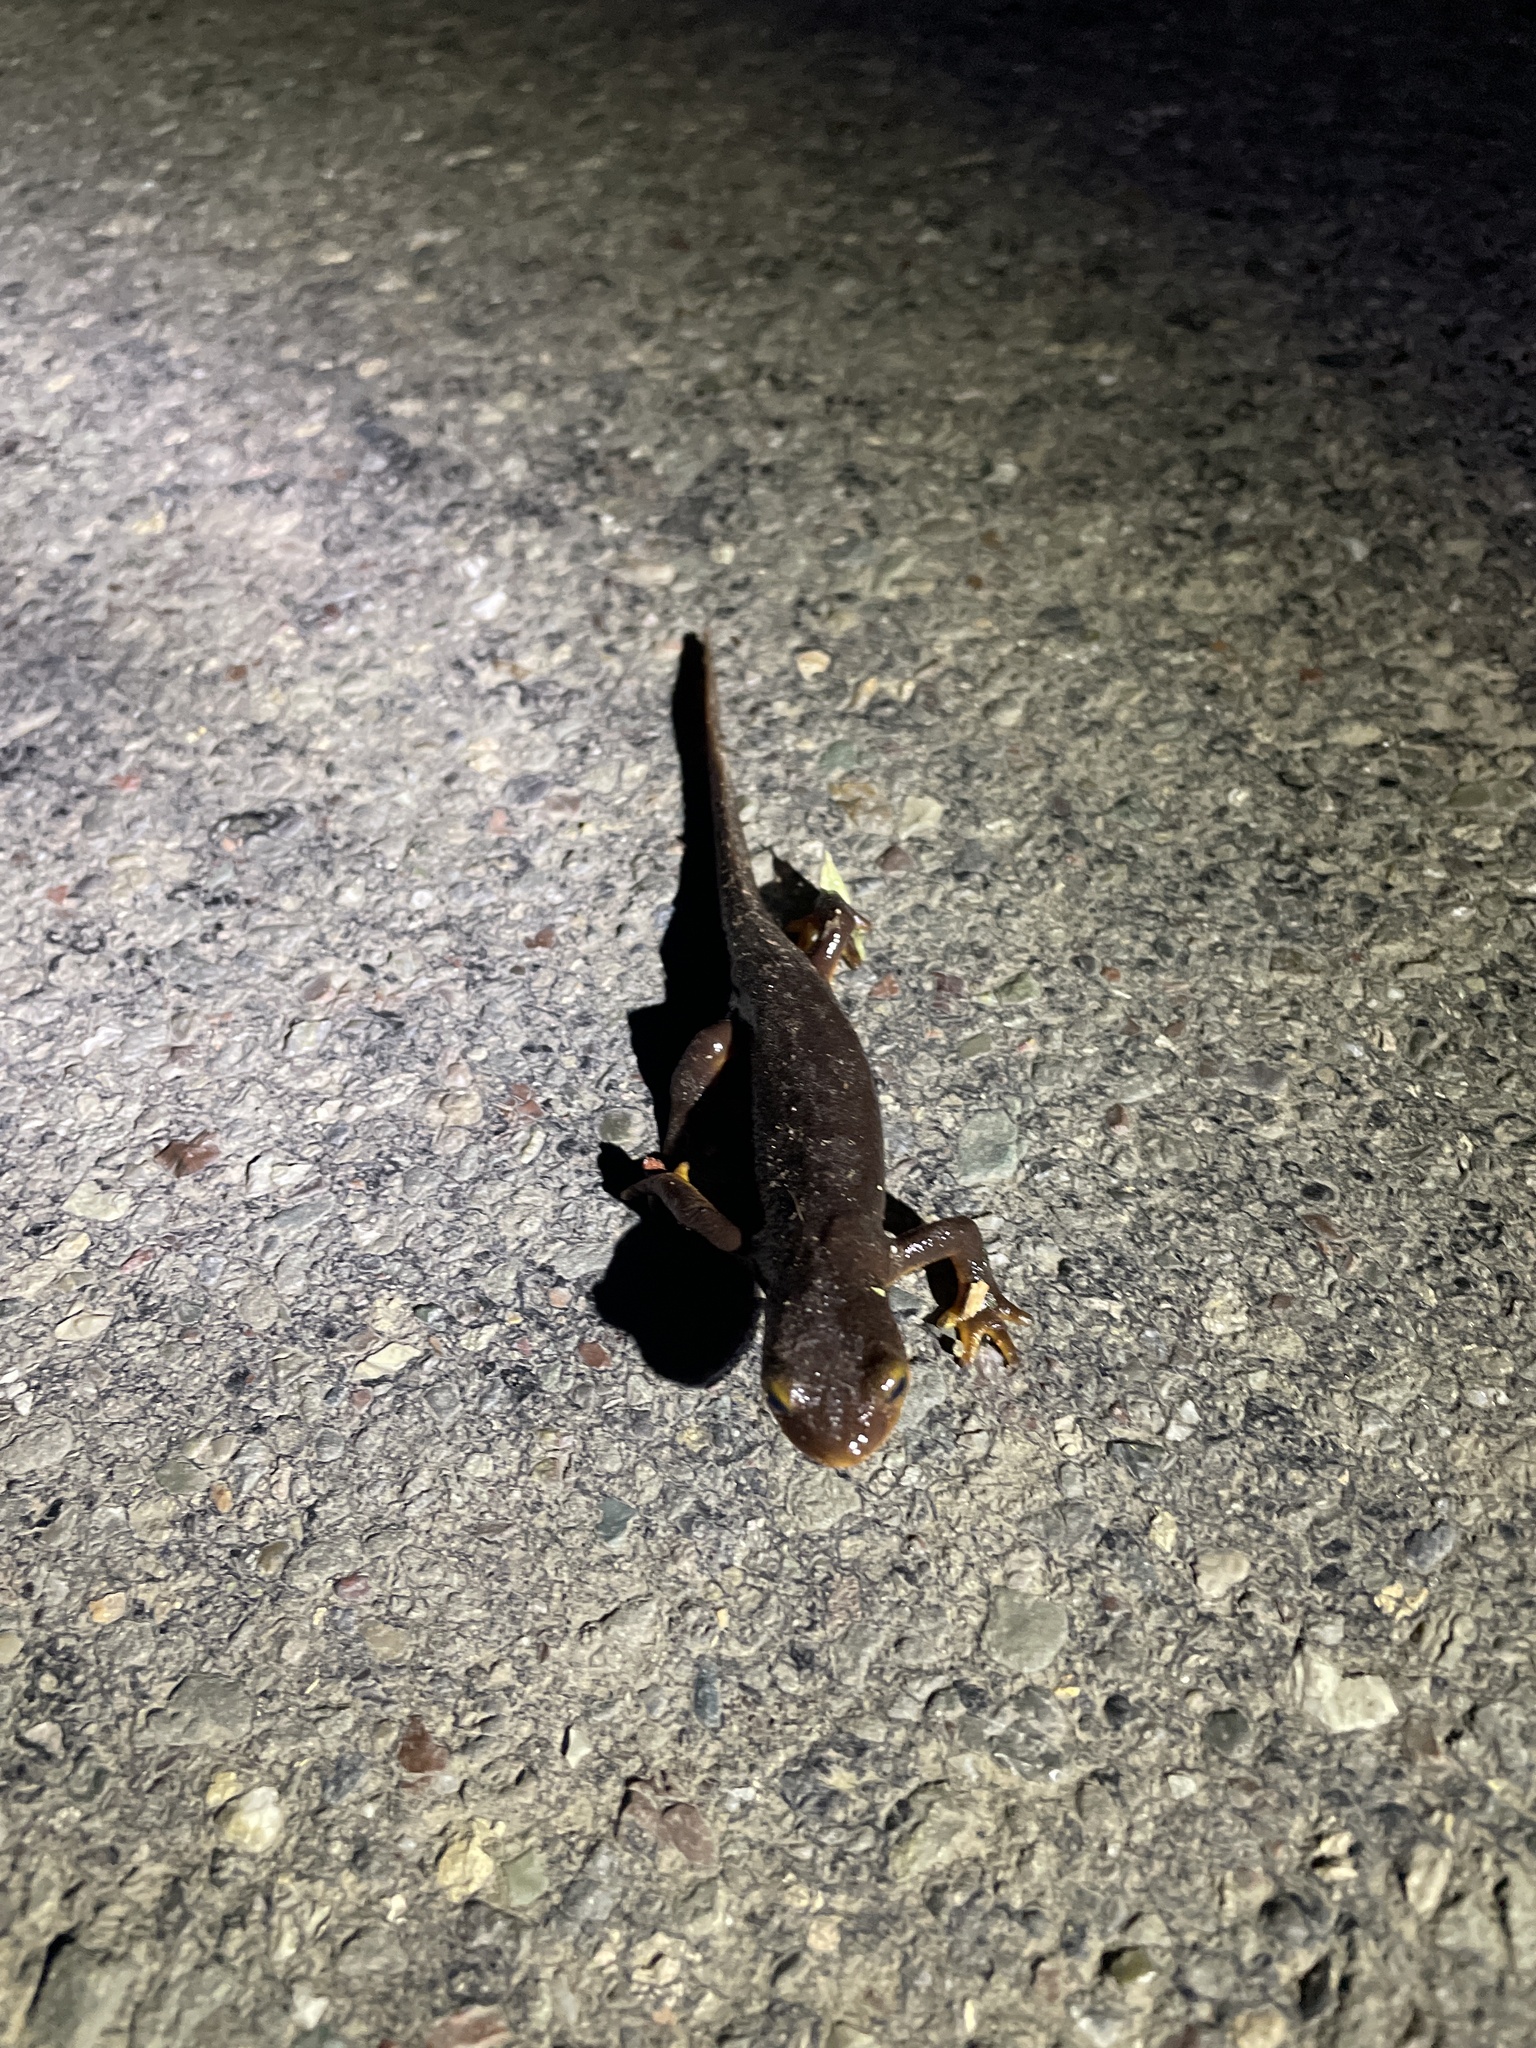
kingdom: Animalia
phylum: Chordata
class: Amphibia
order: Caudata
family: Salamandridae
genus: Taricha
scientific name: Taricha torosa
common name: California newt
